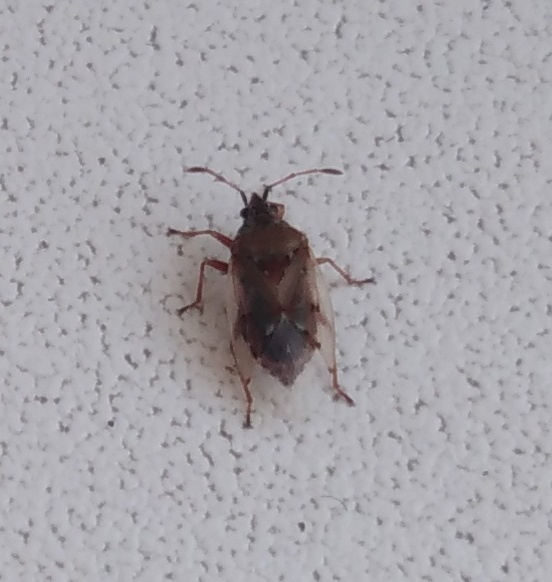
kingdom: Animalia
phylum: Arthropoda
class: Insecta
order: Hemiptera
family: Lygaeidae
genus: Kleidocerys
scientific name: Kleidocerys resedae
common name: Birch catkin bug
